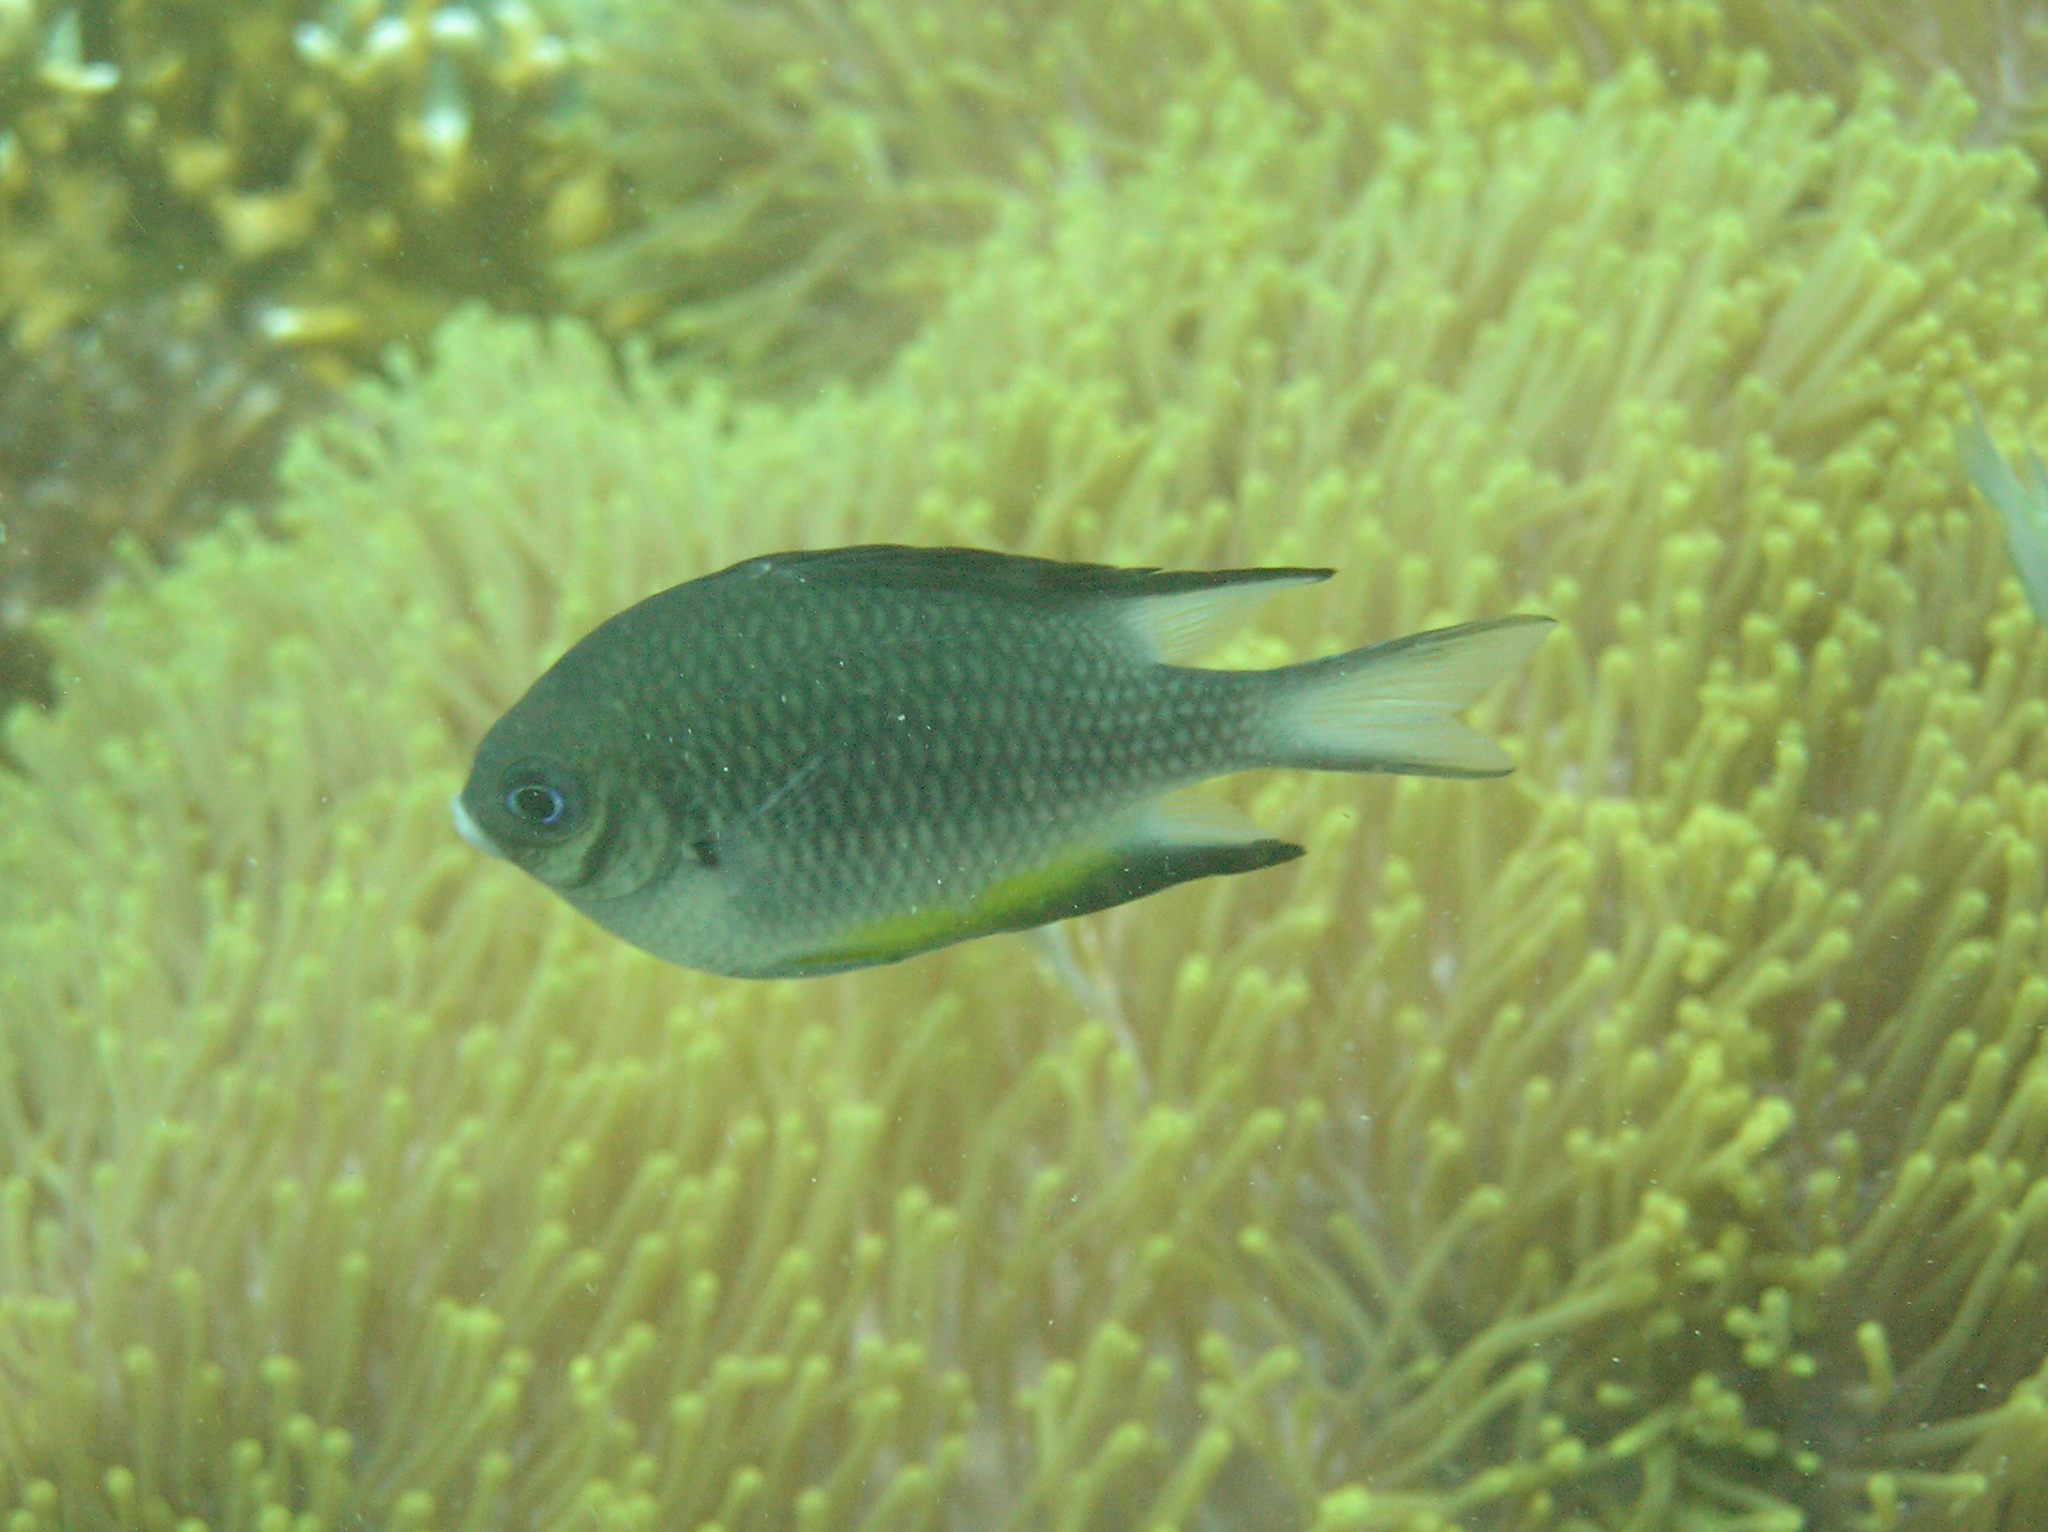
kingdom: Animalia
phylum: Chordata
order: Perciformes
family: Pomacentridae
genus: Amblyglyphidodon
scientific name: Amblyglyphidodon leucogaster
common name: White-belly damsel
